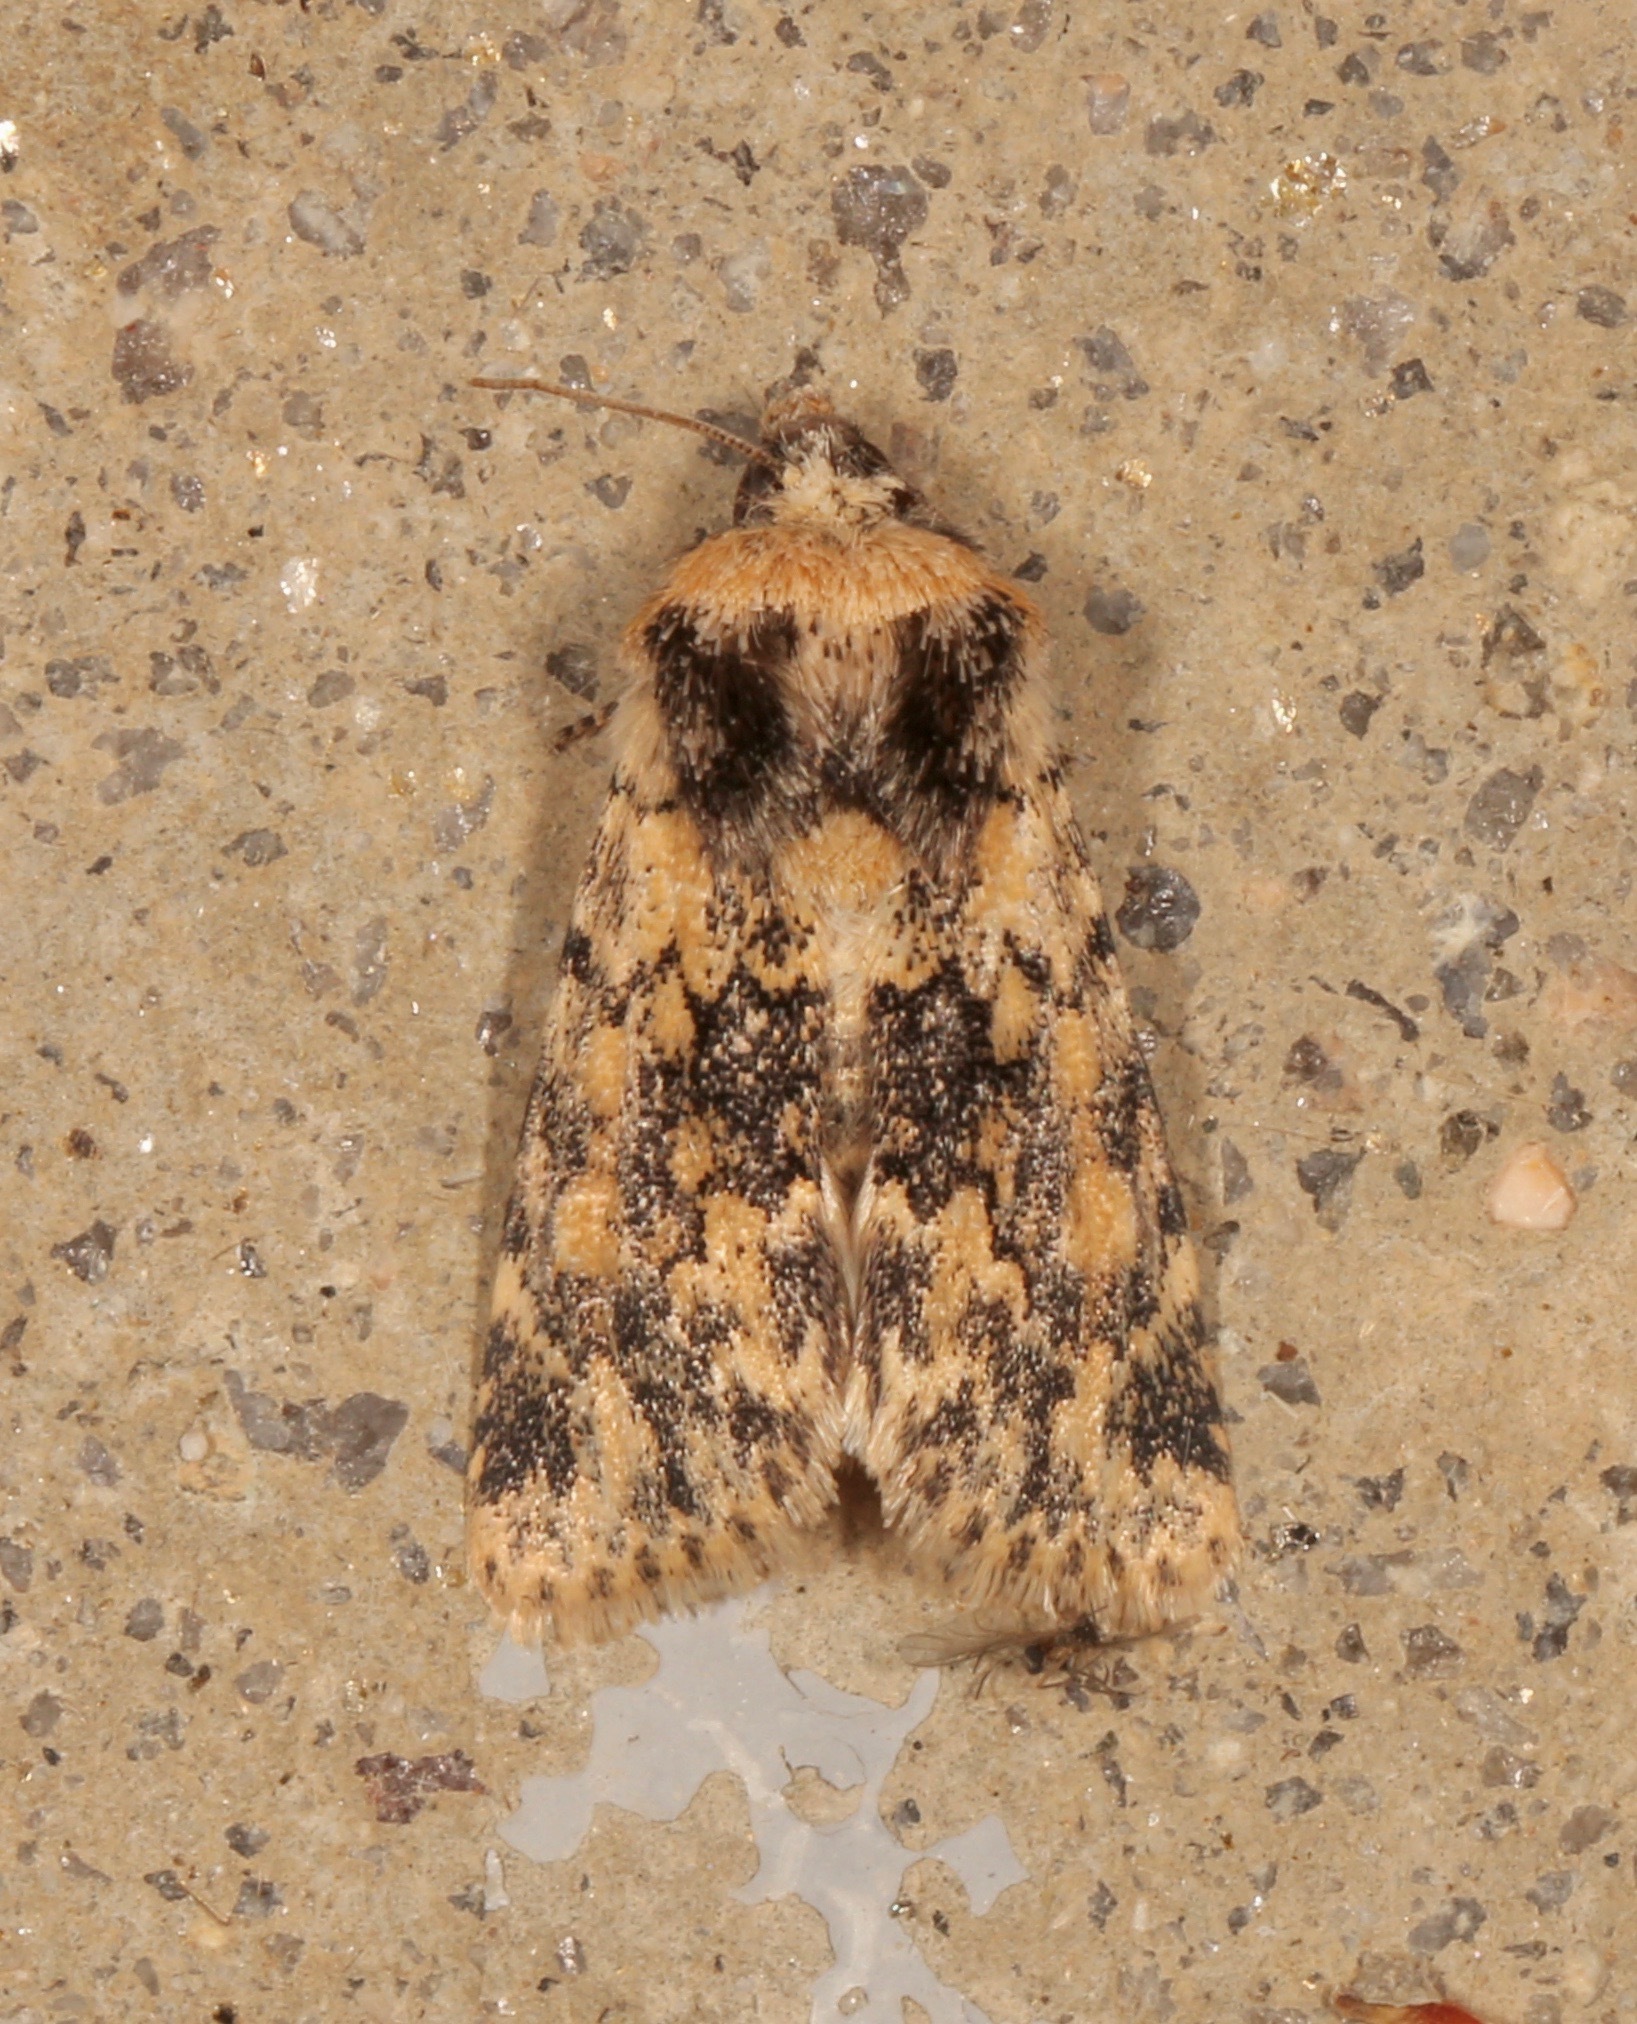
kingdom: Animalia
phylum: Arthropoda
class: Insecta
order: Lepidoptera
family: Noctuidae
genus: Sympistis
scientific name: Sympistis singularis
